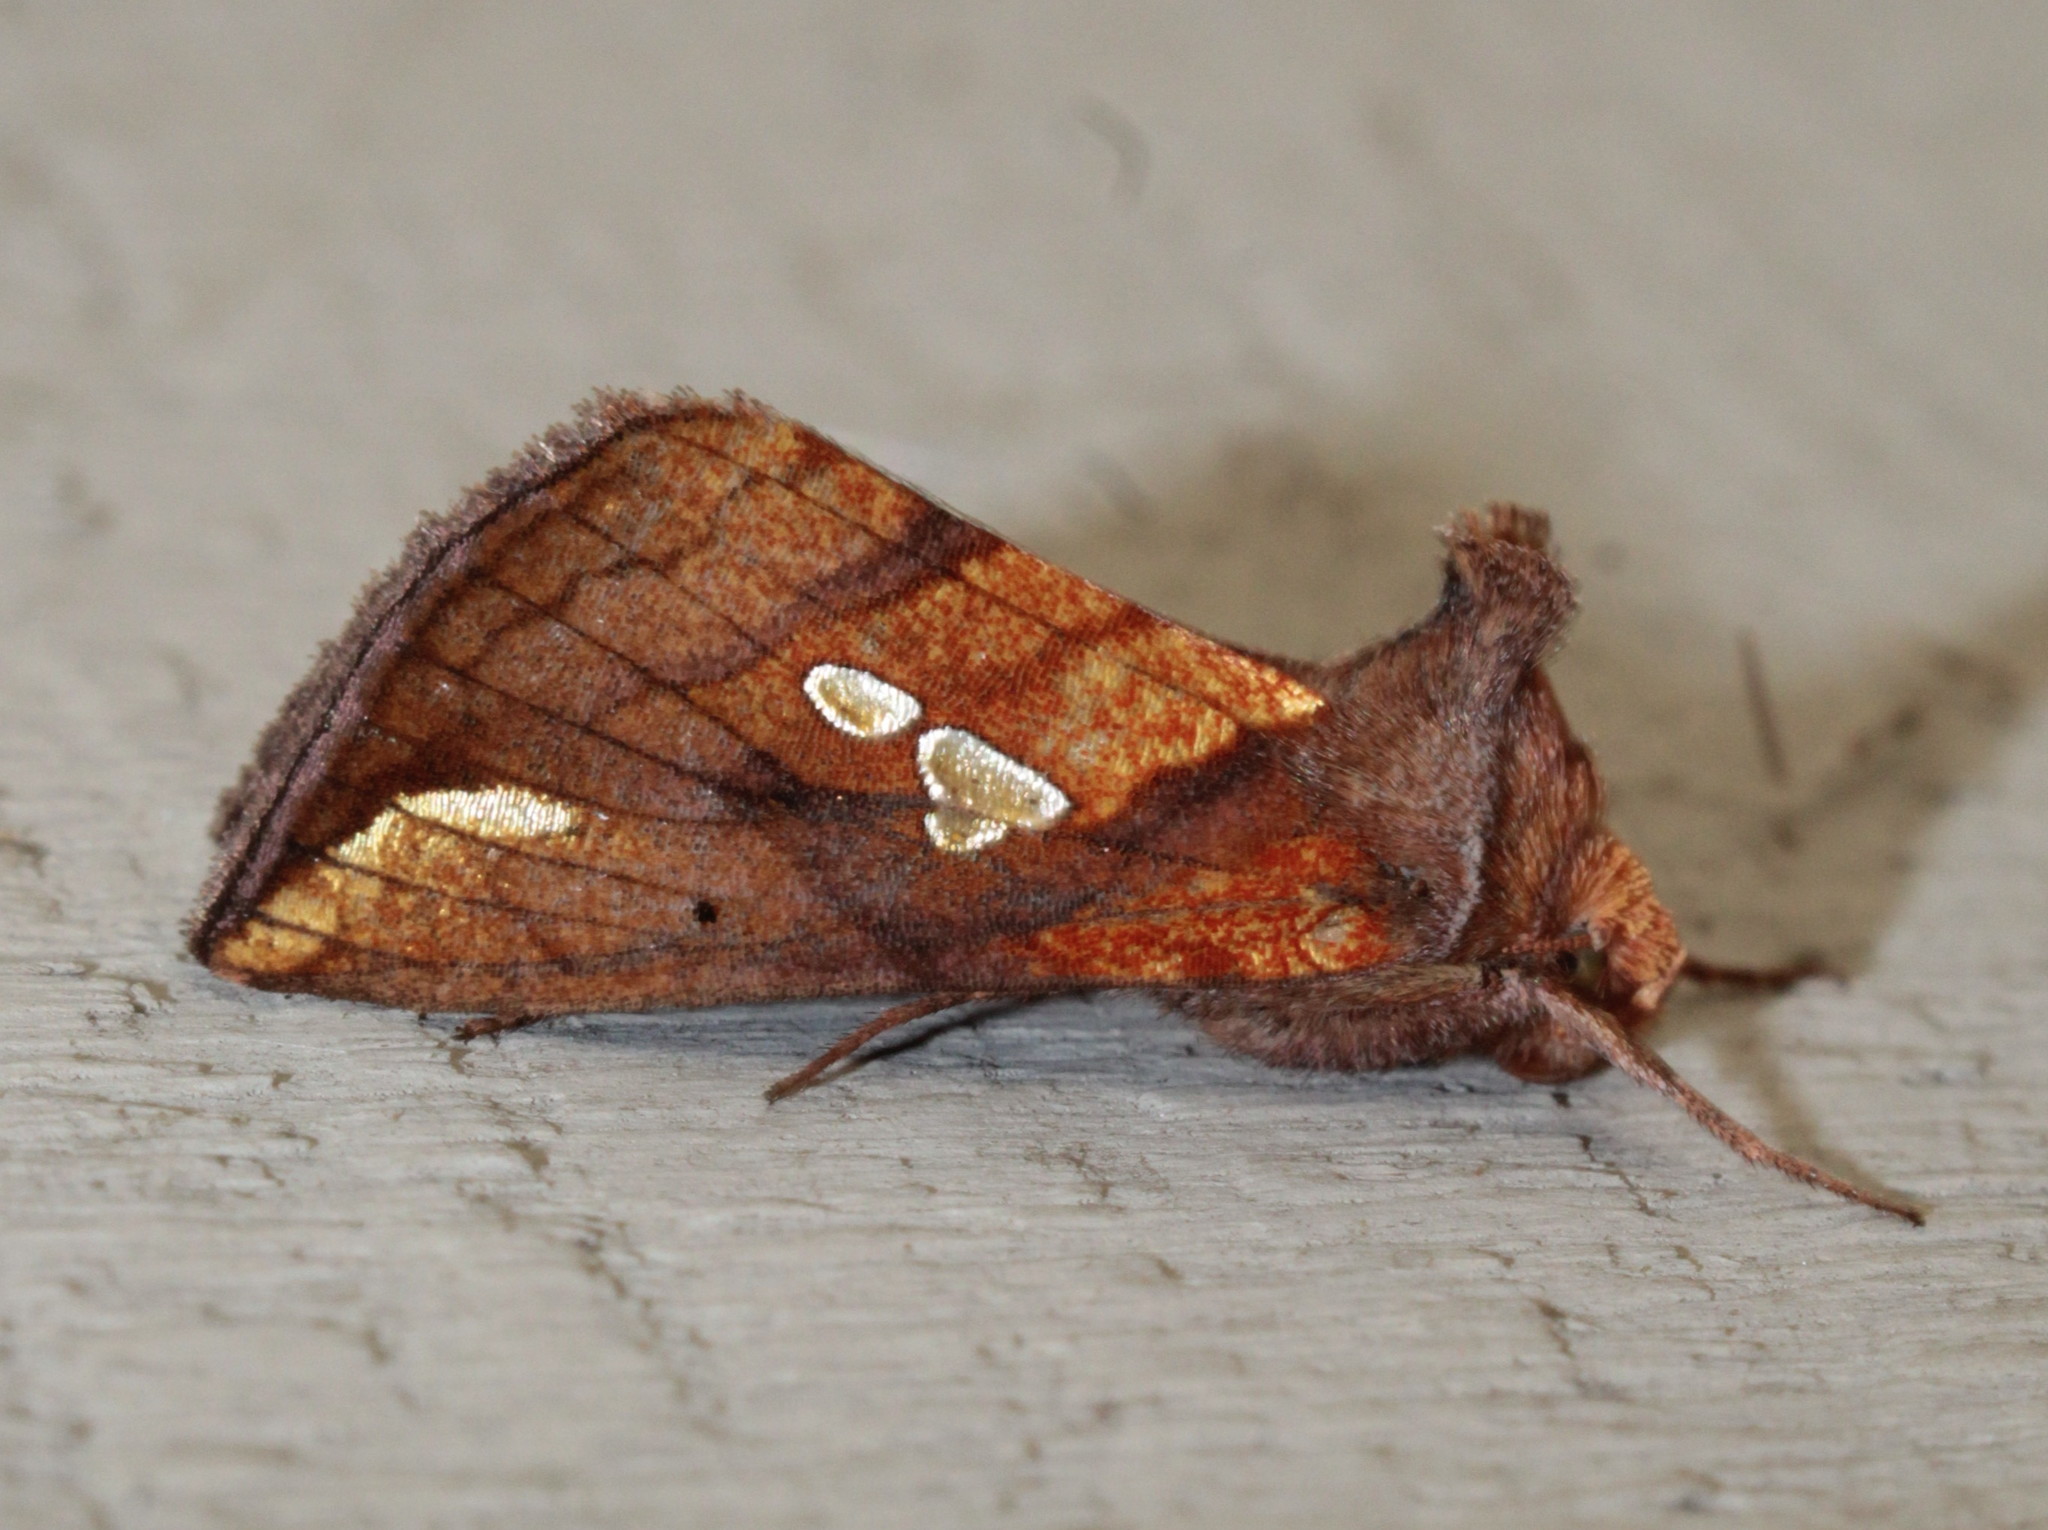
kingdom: Animalia
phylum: Arthropoda
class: Insecta
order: Lepidoptera
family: Noctuidae
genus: Plusia
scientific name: Plusia putnami
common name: Lempke's gold spot
